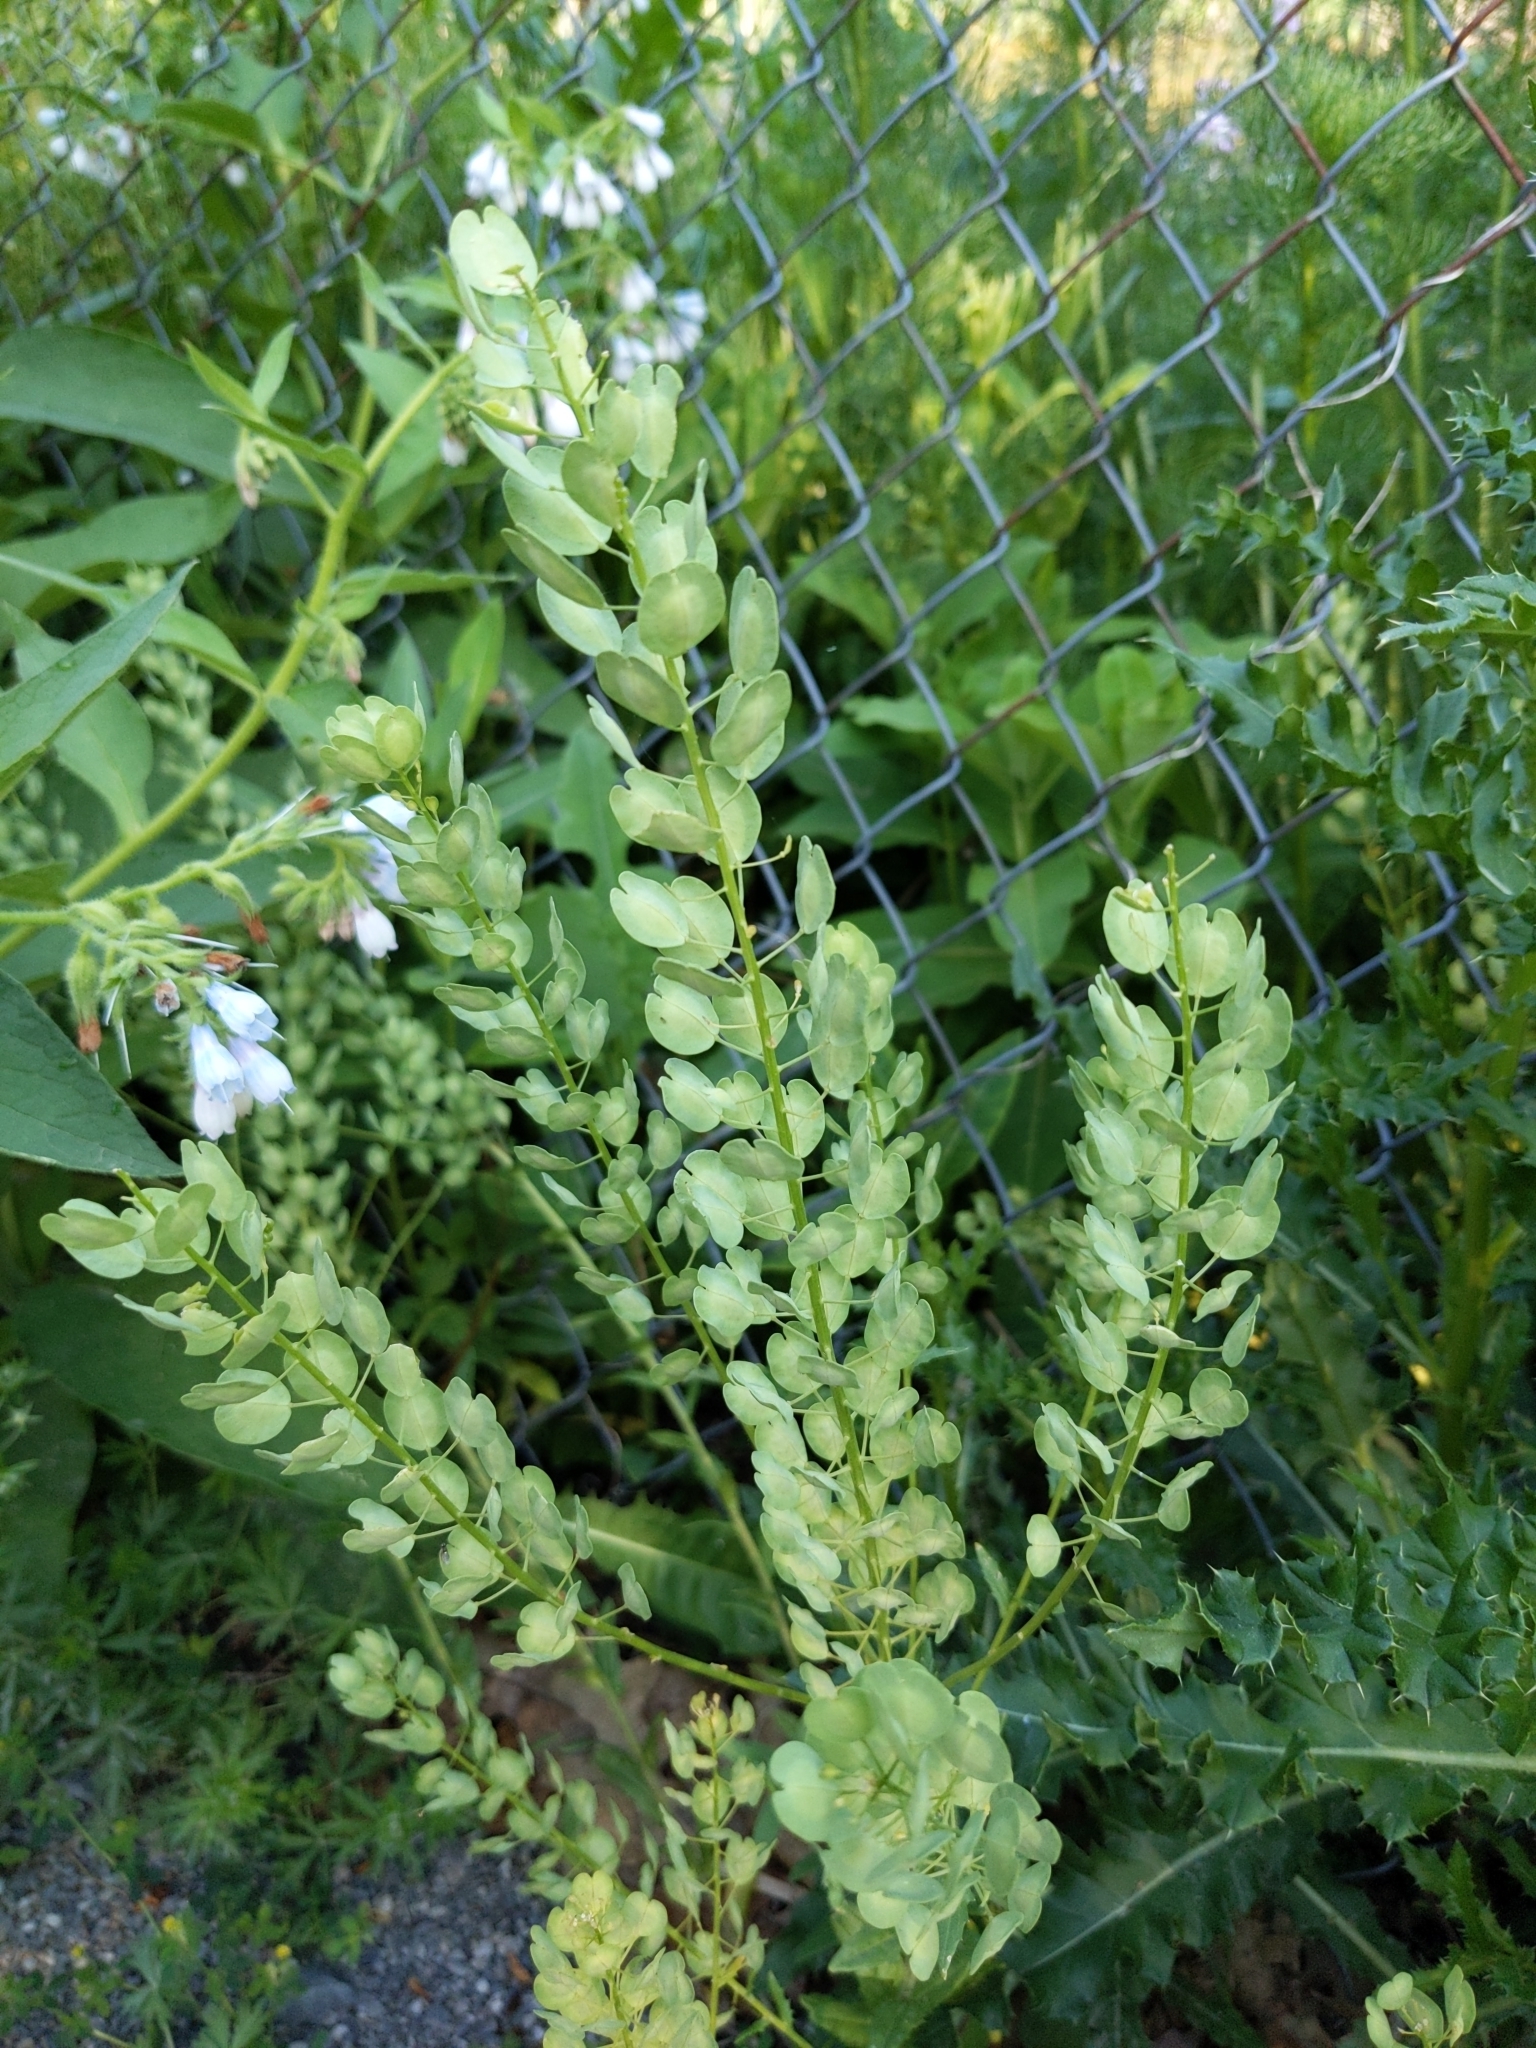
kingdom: Plantae
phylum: Tracheophyta
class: Magnoliopsida
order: Brassicales
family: Brassicaceae
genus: Thlaspi
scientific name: Thlaspi arvense
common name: Field pennycress
